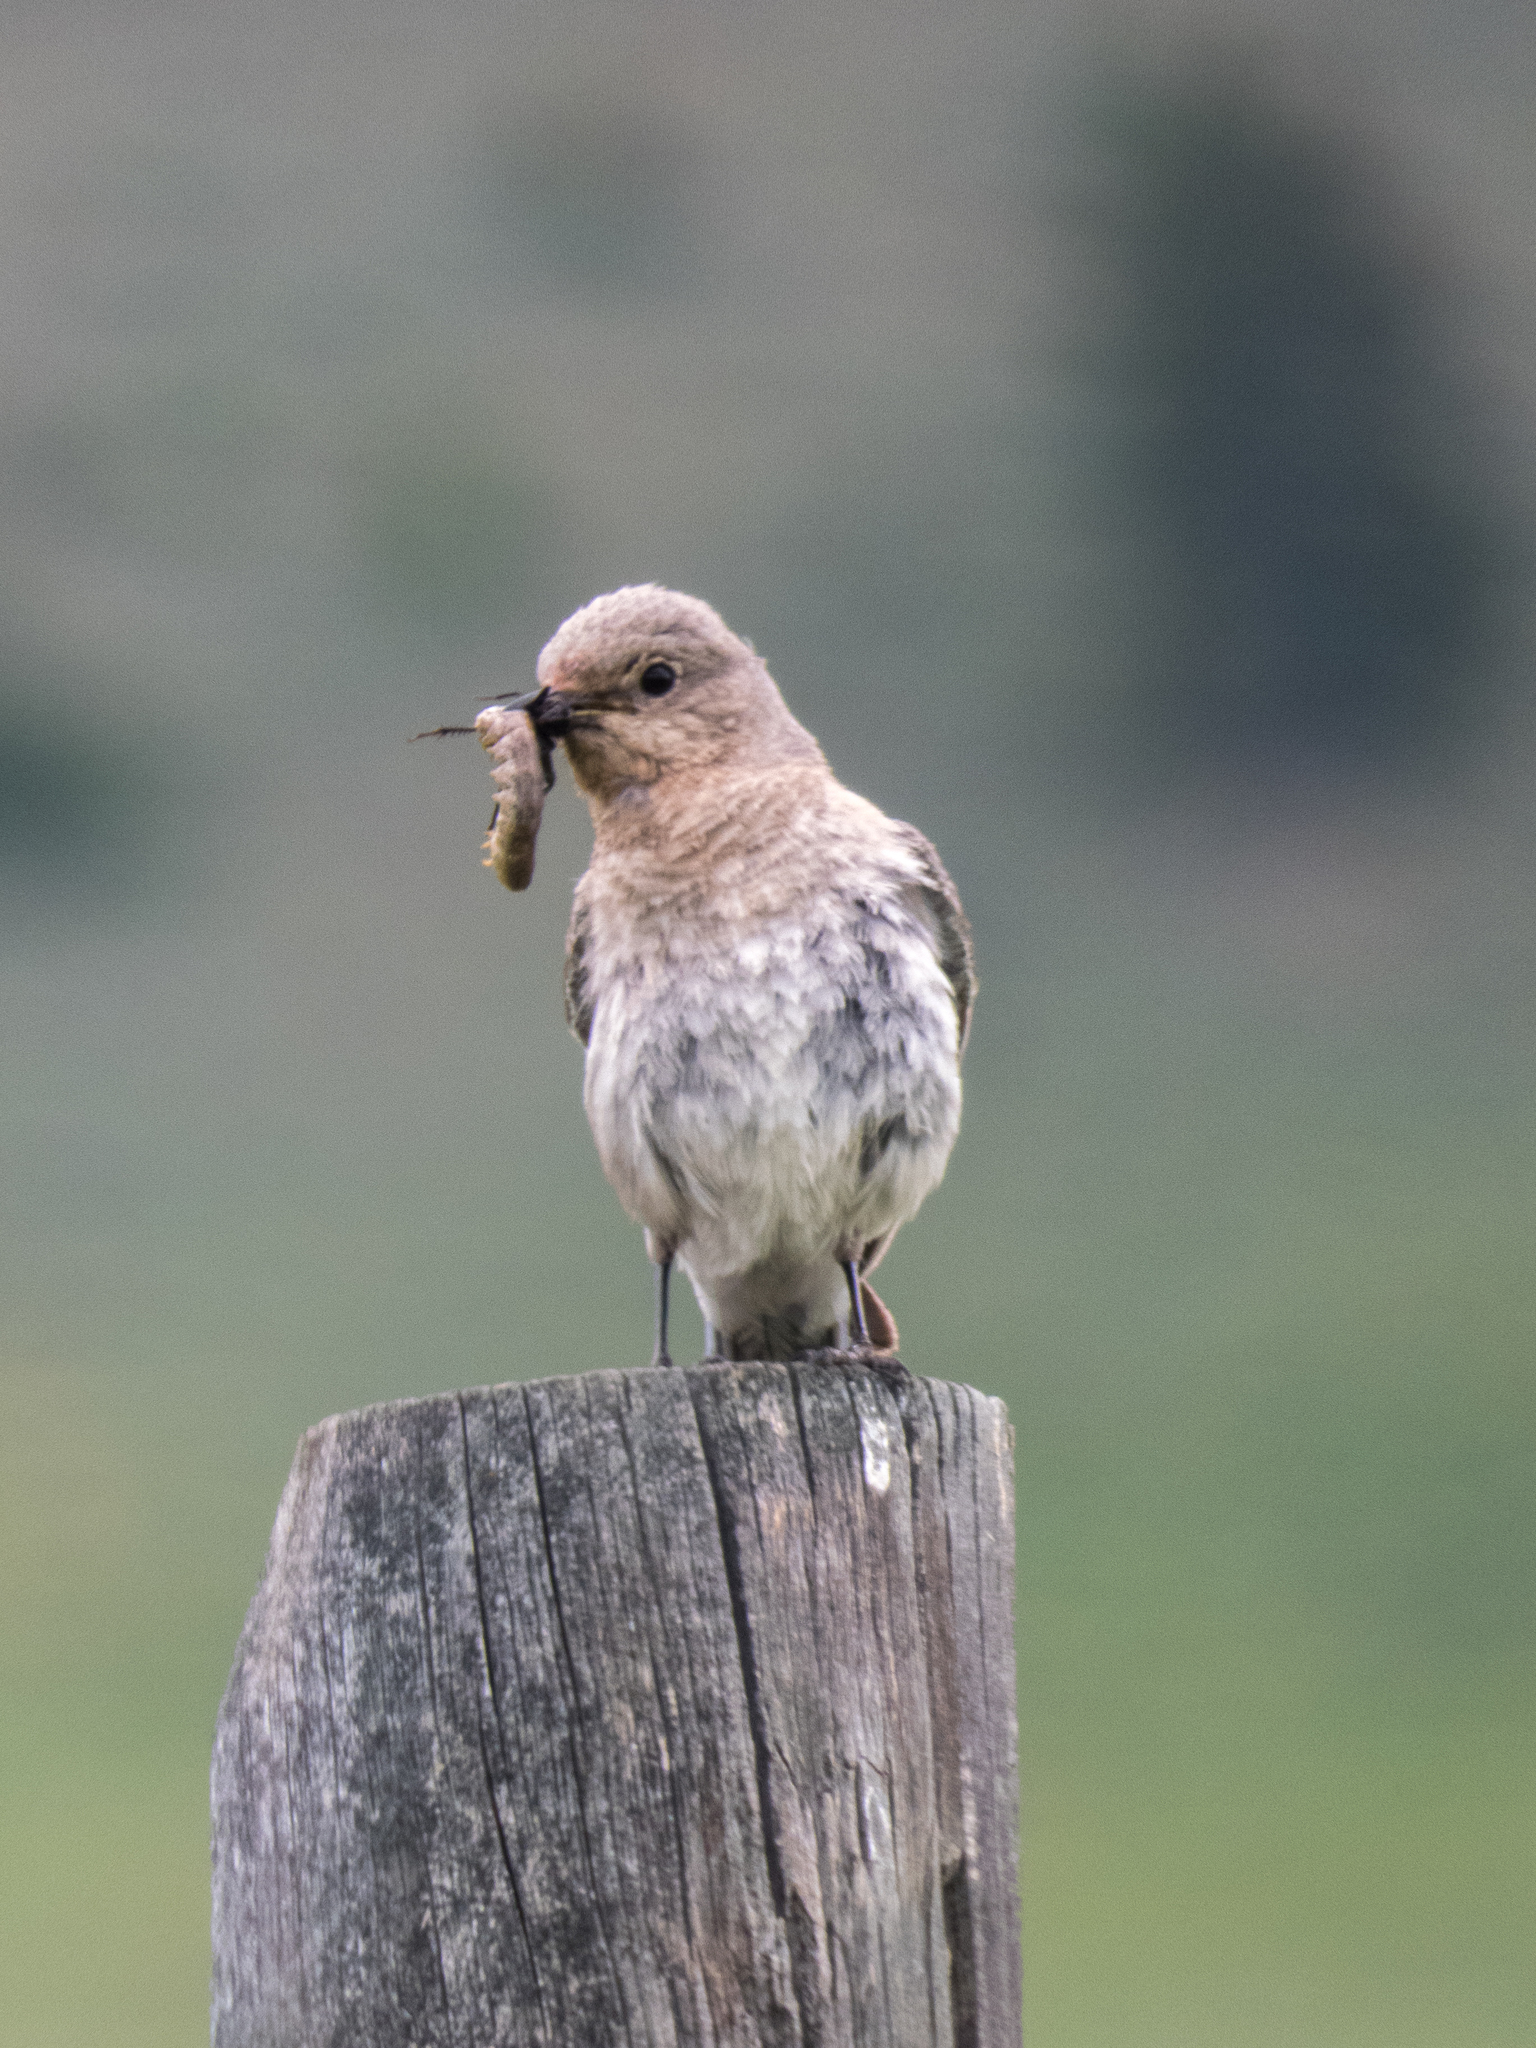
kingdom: Animalia
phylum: Chordata
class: Aves
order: Passeriformes
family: Turdidae
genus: Sialia
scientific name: Sialia currucoides
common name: Mountain bluebird
